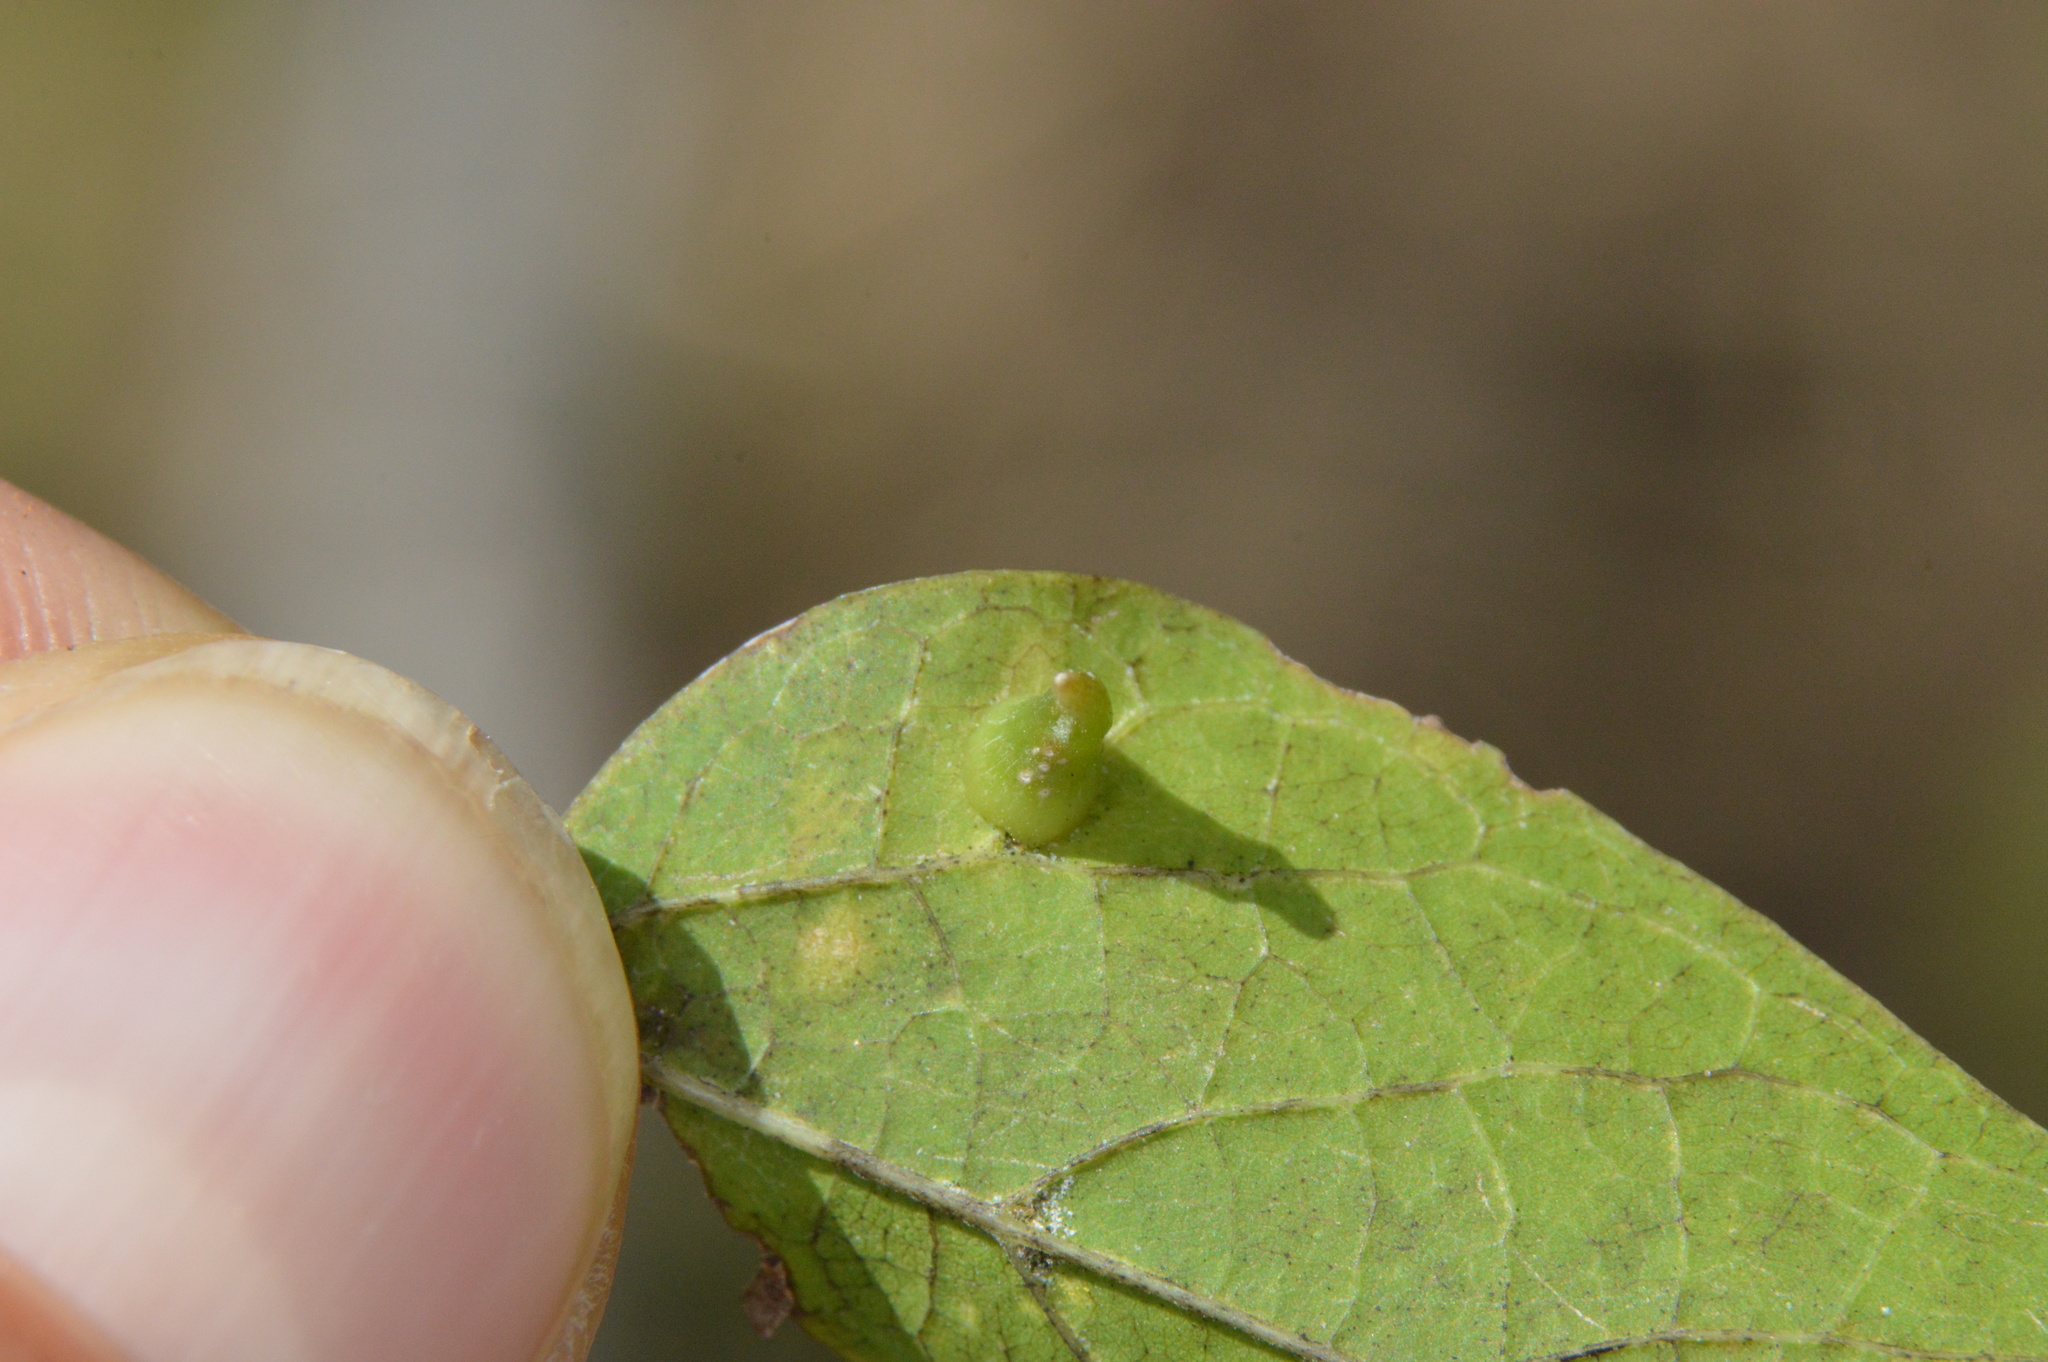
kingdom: Animalia
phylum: Arthropoda
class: Insecta
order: Diptera
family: Cecidomyiidae
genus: Celticecis
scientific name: Celticecis subulata
